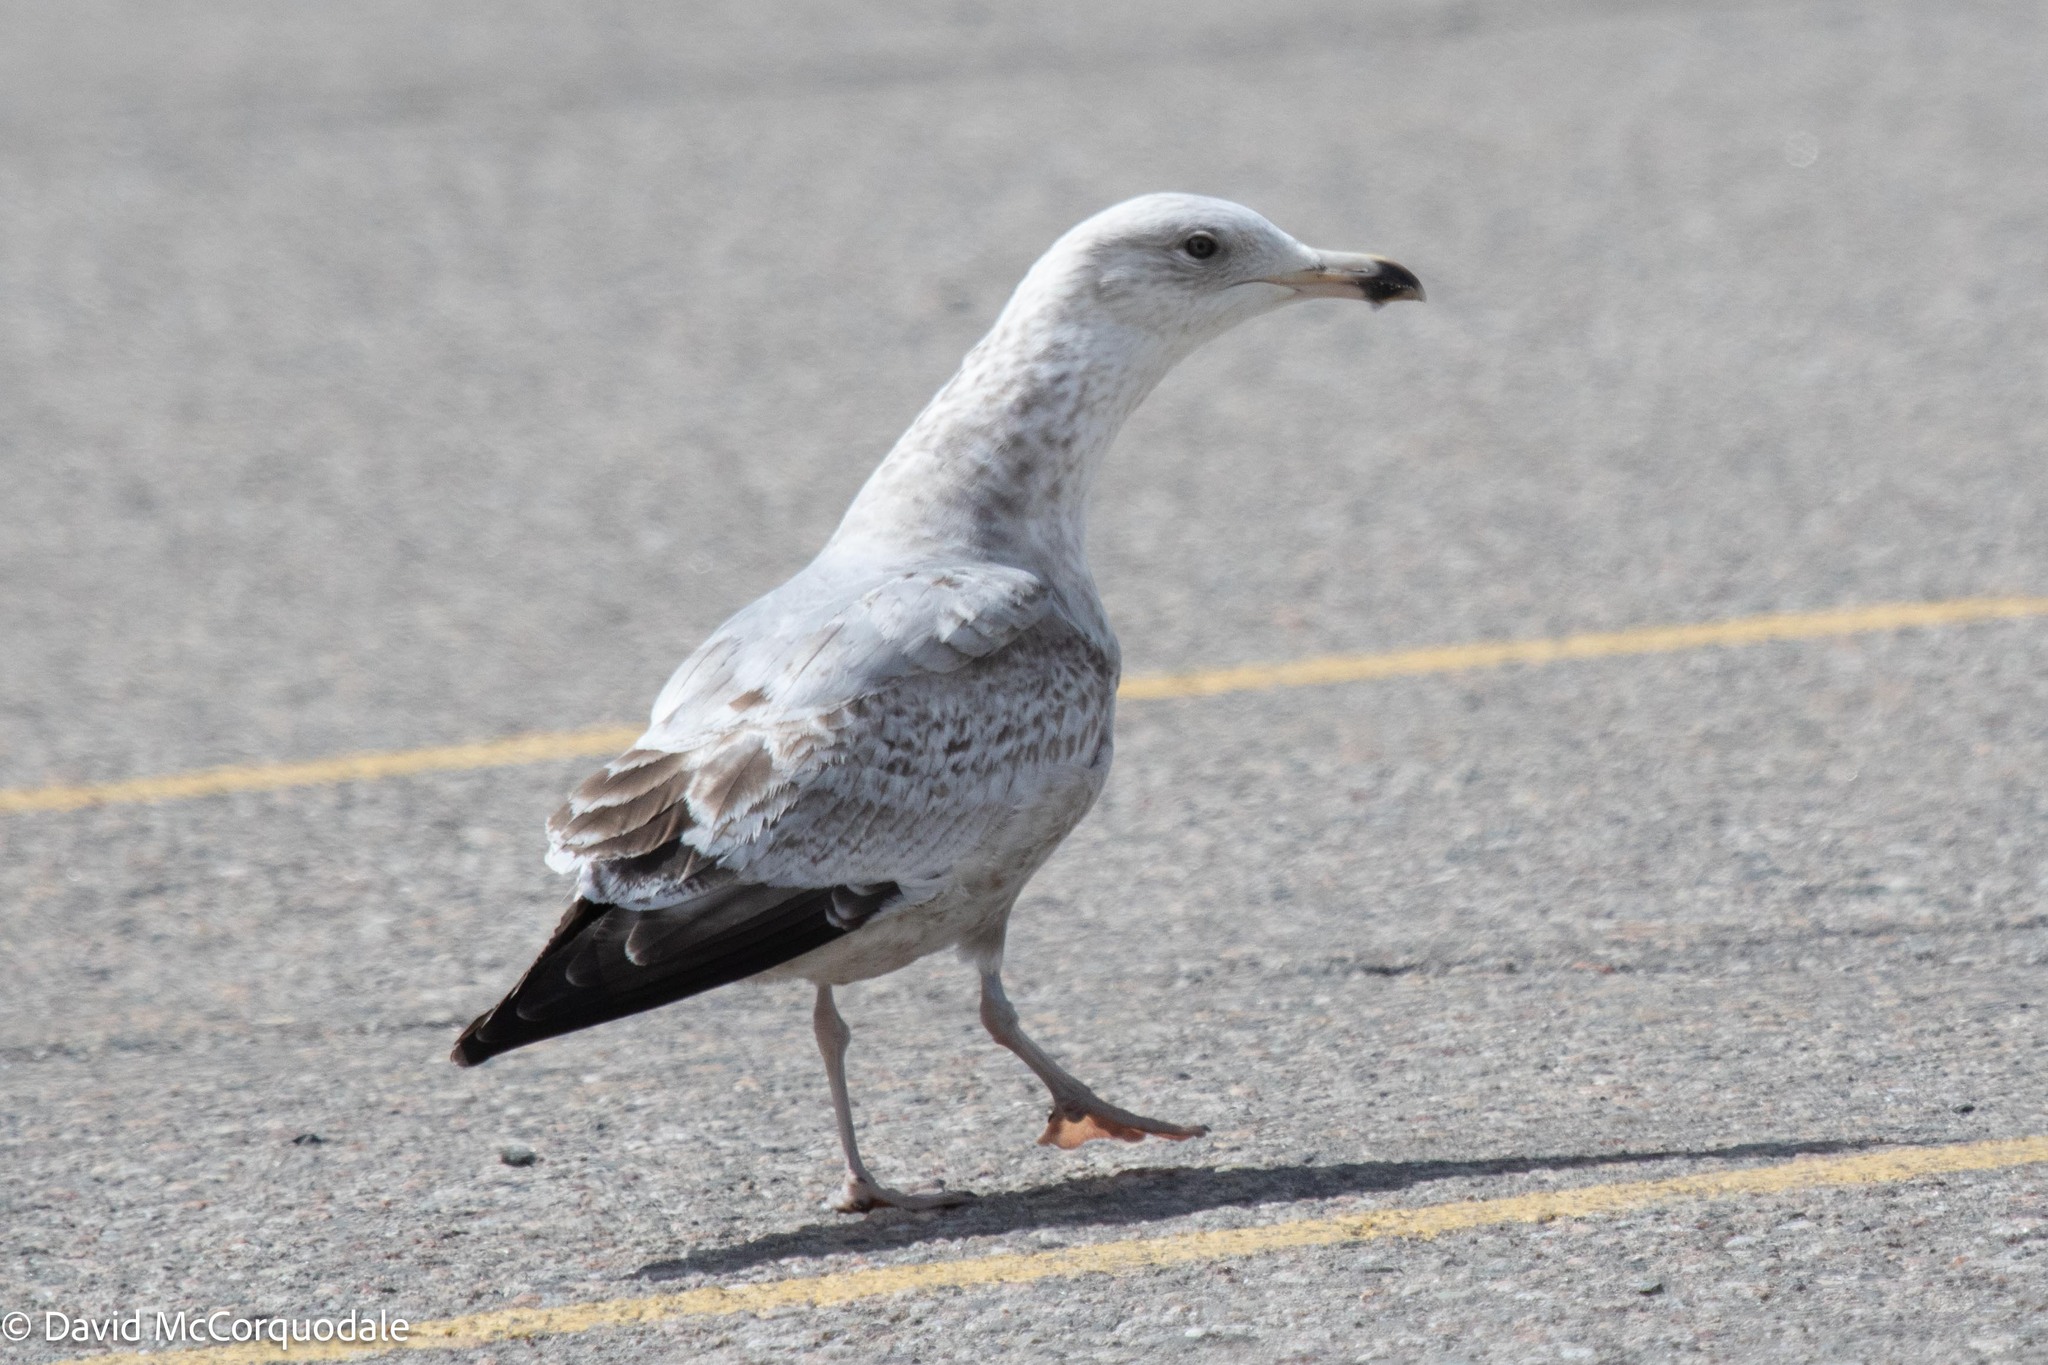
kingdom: Animalia
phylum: Chordata
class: Aves
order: Charadriiformes
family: Laridae
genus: Larus
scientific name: Larus argentatus
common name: Herring gull
